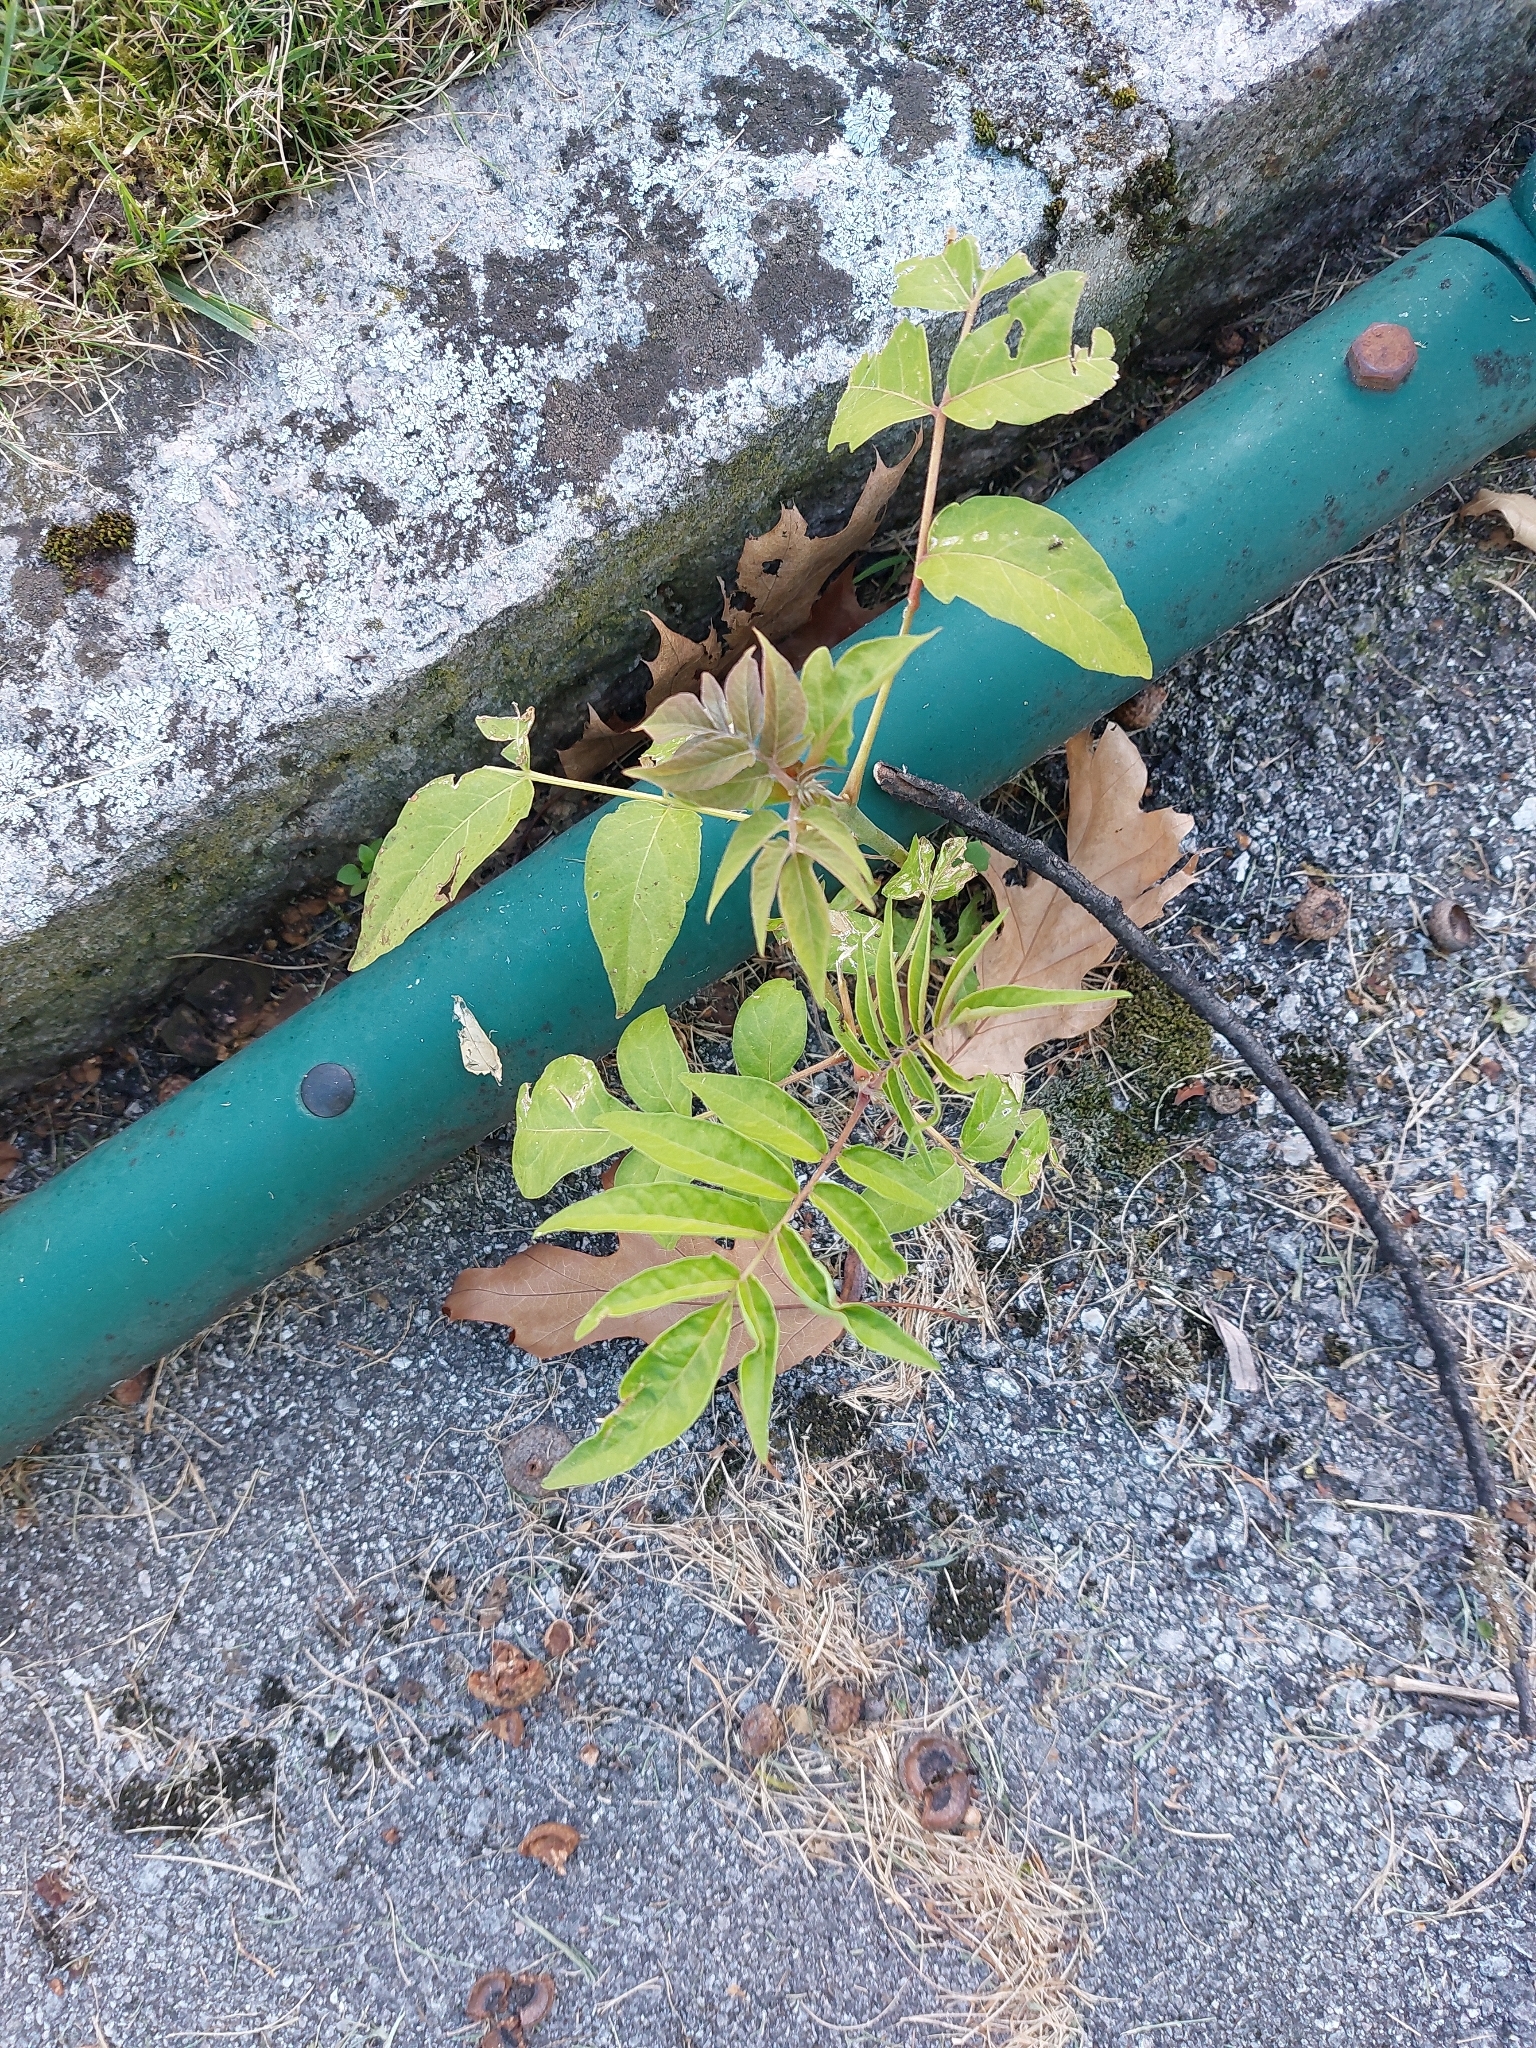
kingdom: Plantae
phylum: Tracheophyta
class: Magnoliopsida
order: Sapindales
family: Simaroubaceae
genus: Ailanthus
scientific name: Ailanthus altissima
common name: Tree-of-heaven
